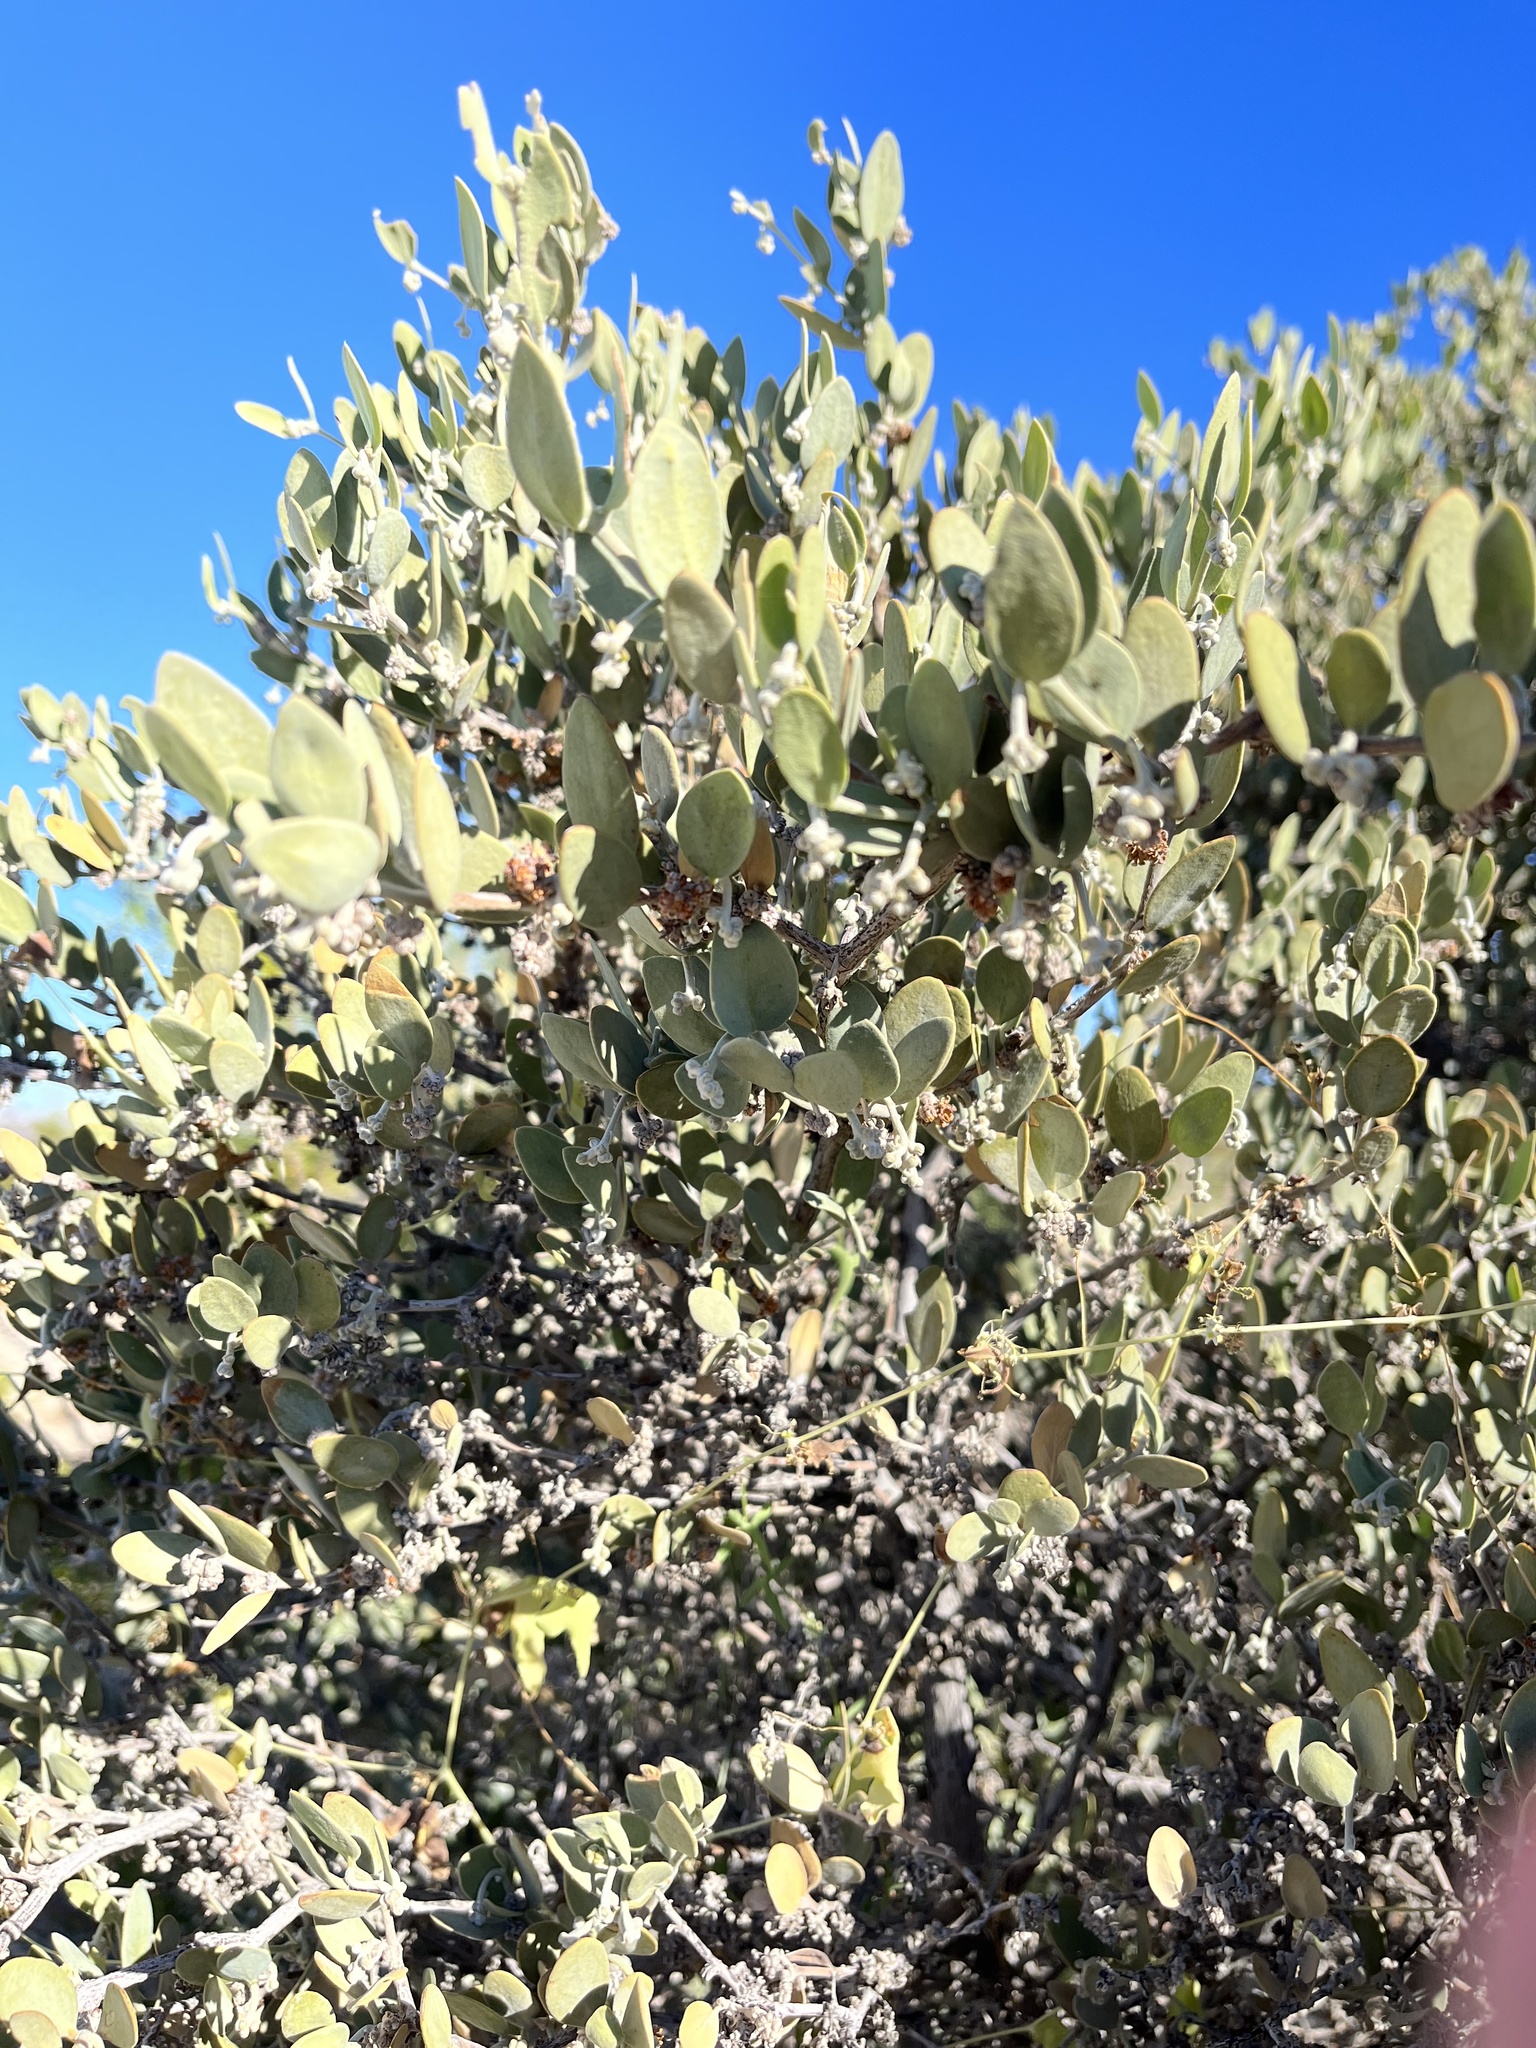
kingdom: Plantae
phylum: Tracheophyta
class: Magnoliopsida
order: Caryophyllales
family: Simmondsiaceae
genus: Simmondsia
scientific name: Simmondsia chinensis
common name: Jojoba
